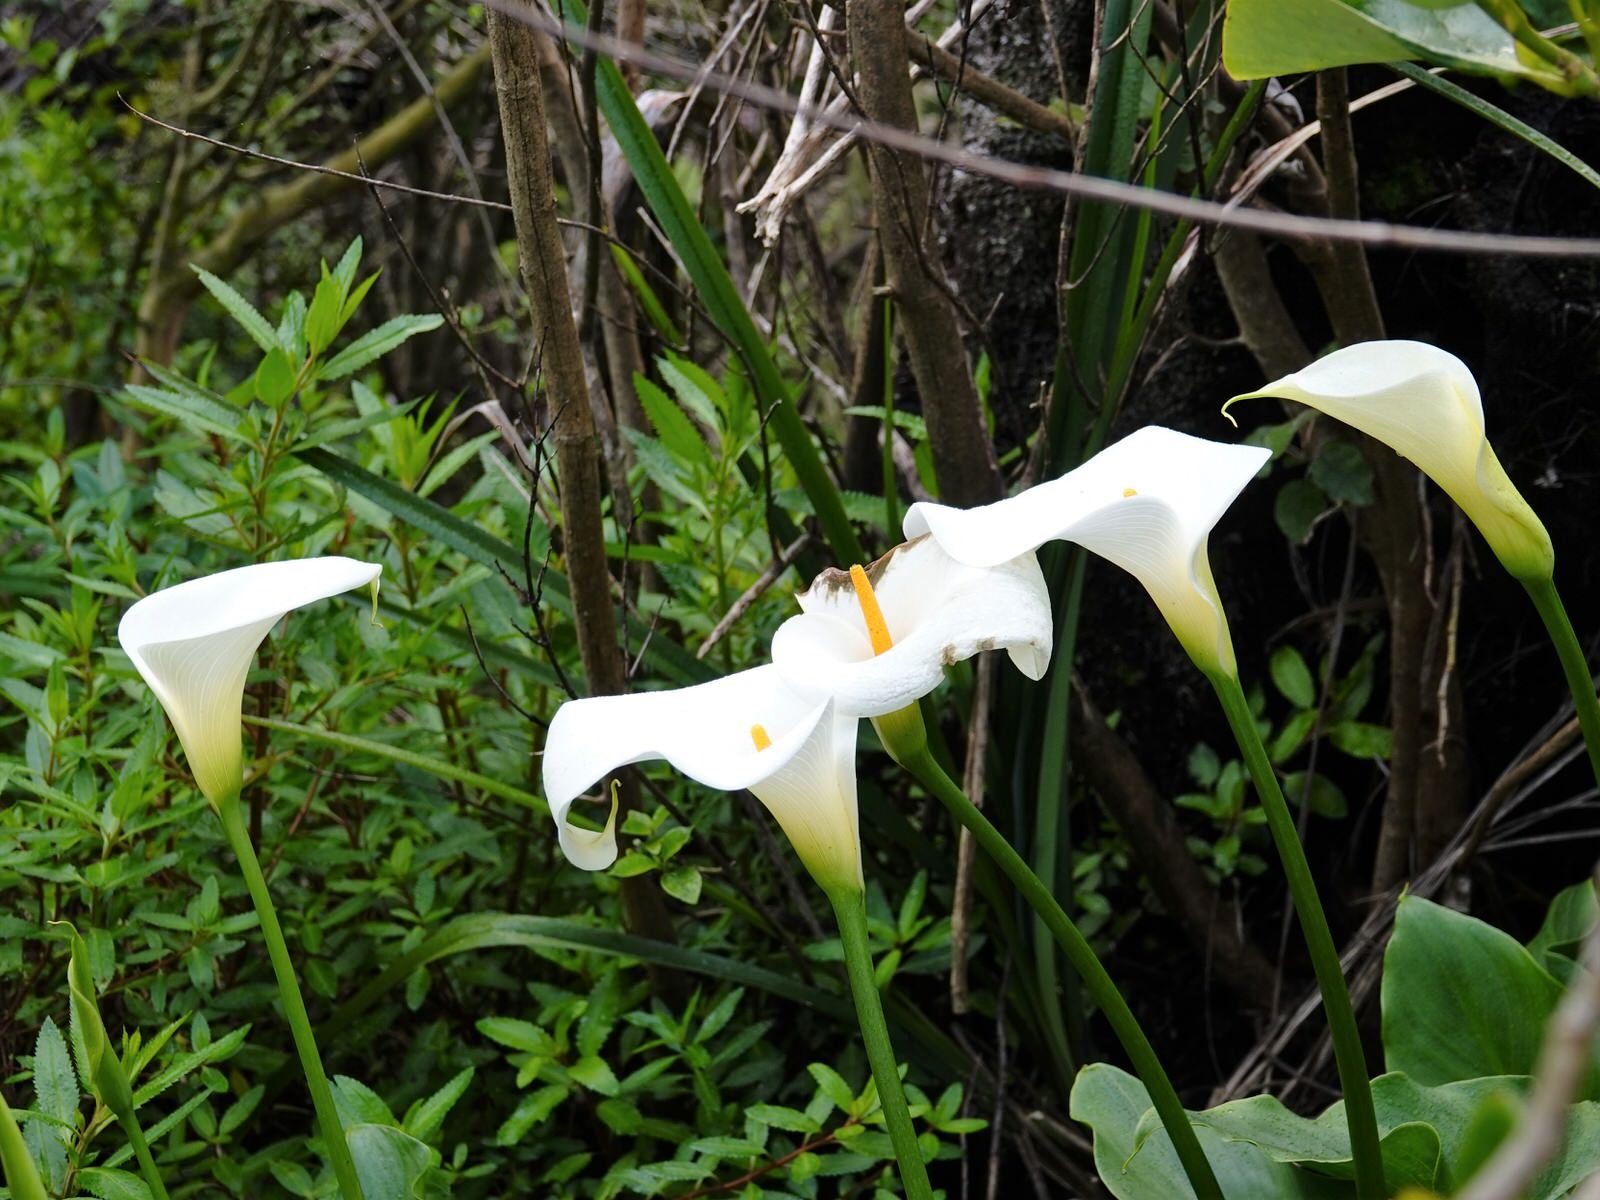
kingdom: Plantae
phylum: Tracheophyta
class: Liliopsida
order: Alismatales
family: Araceae
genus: Zantedeschia
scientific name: Zantedeschia aethiopica
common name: Altar-lily
